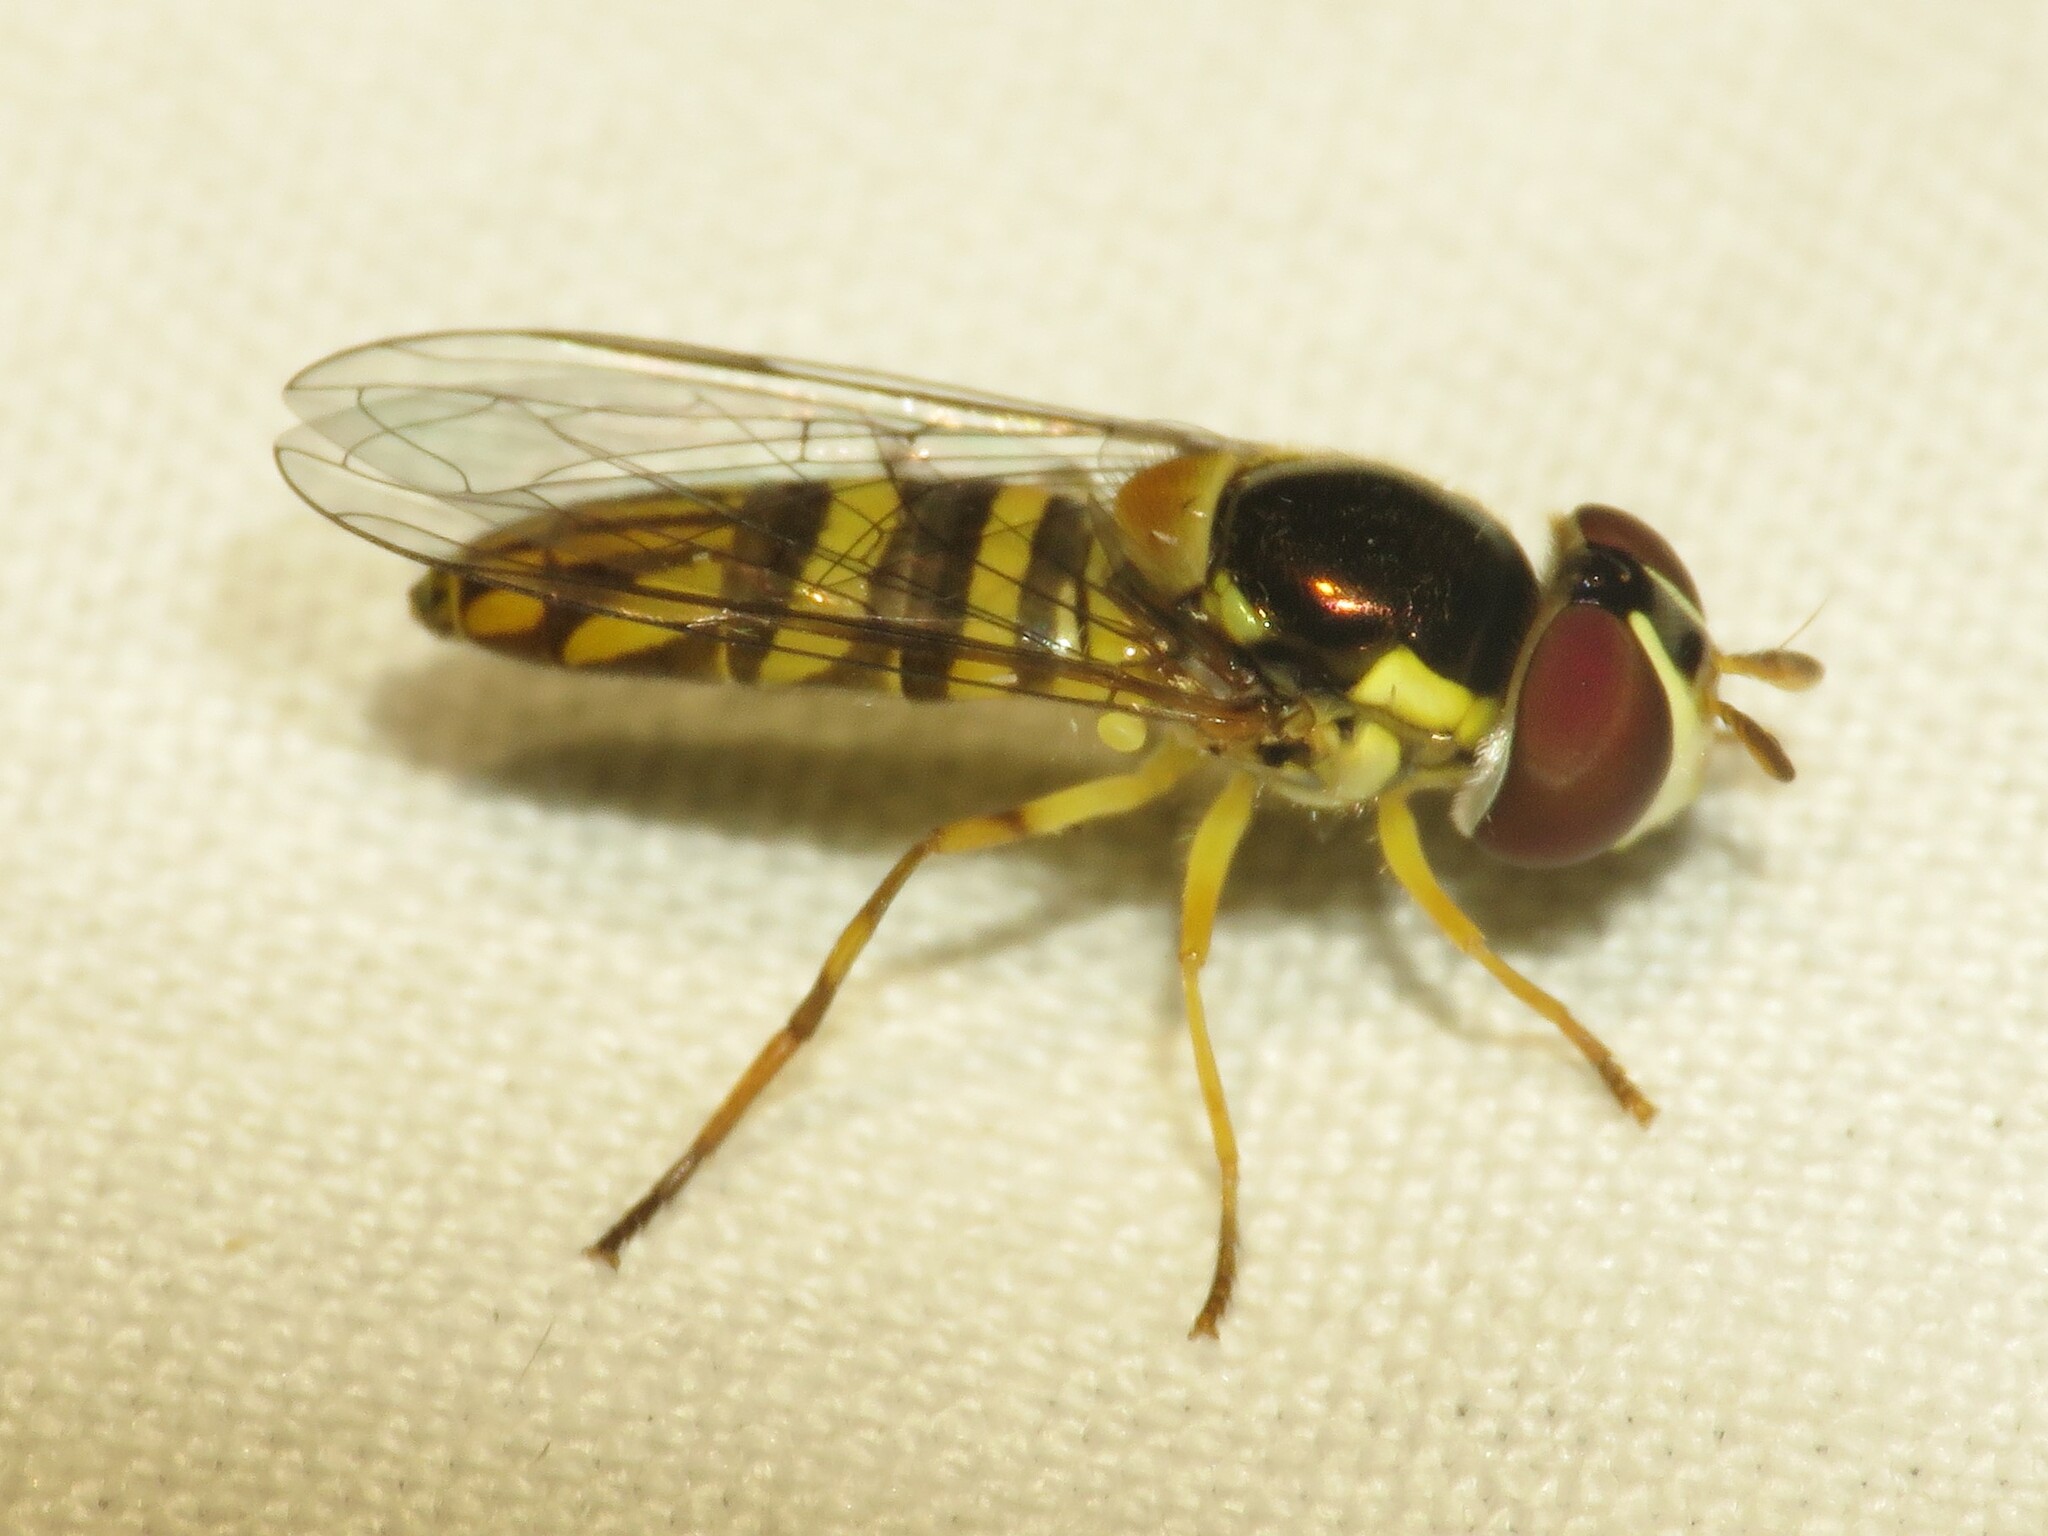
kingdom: Animalia
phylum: Arthropoda
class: Insecta
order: Diptera
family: Syrphidae
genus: Allograpta
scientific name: Allograpta obliqua
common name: Common oblique syrphid
